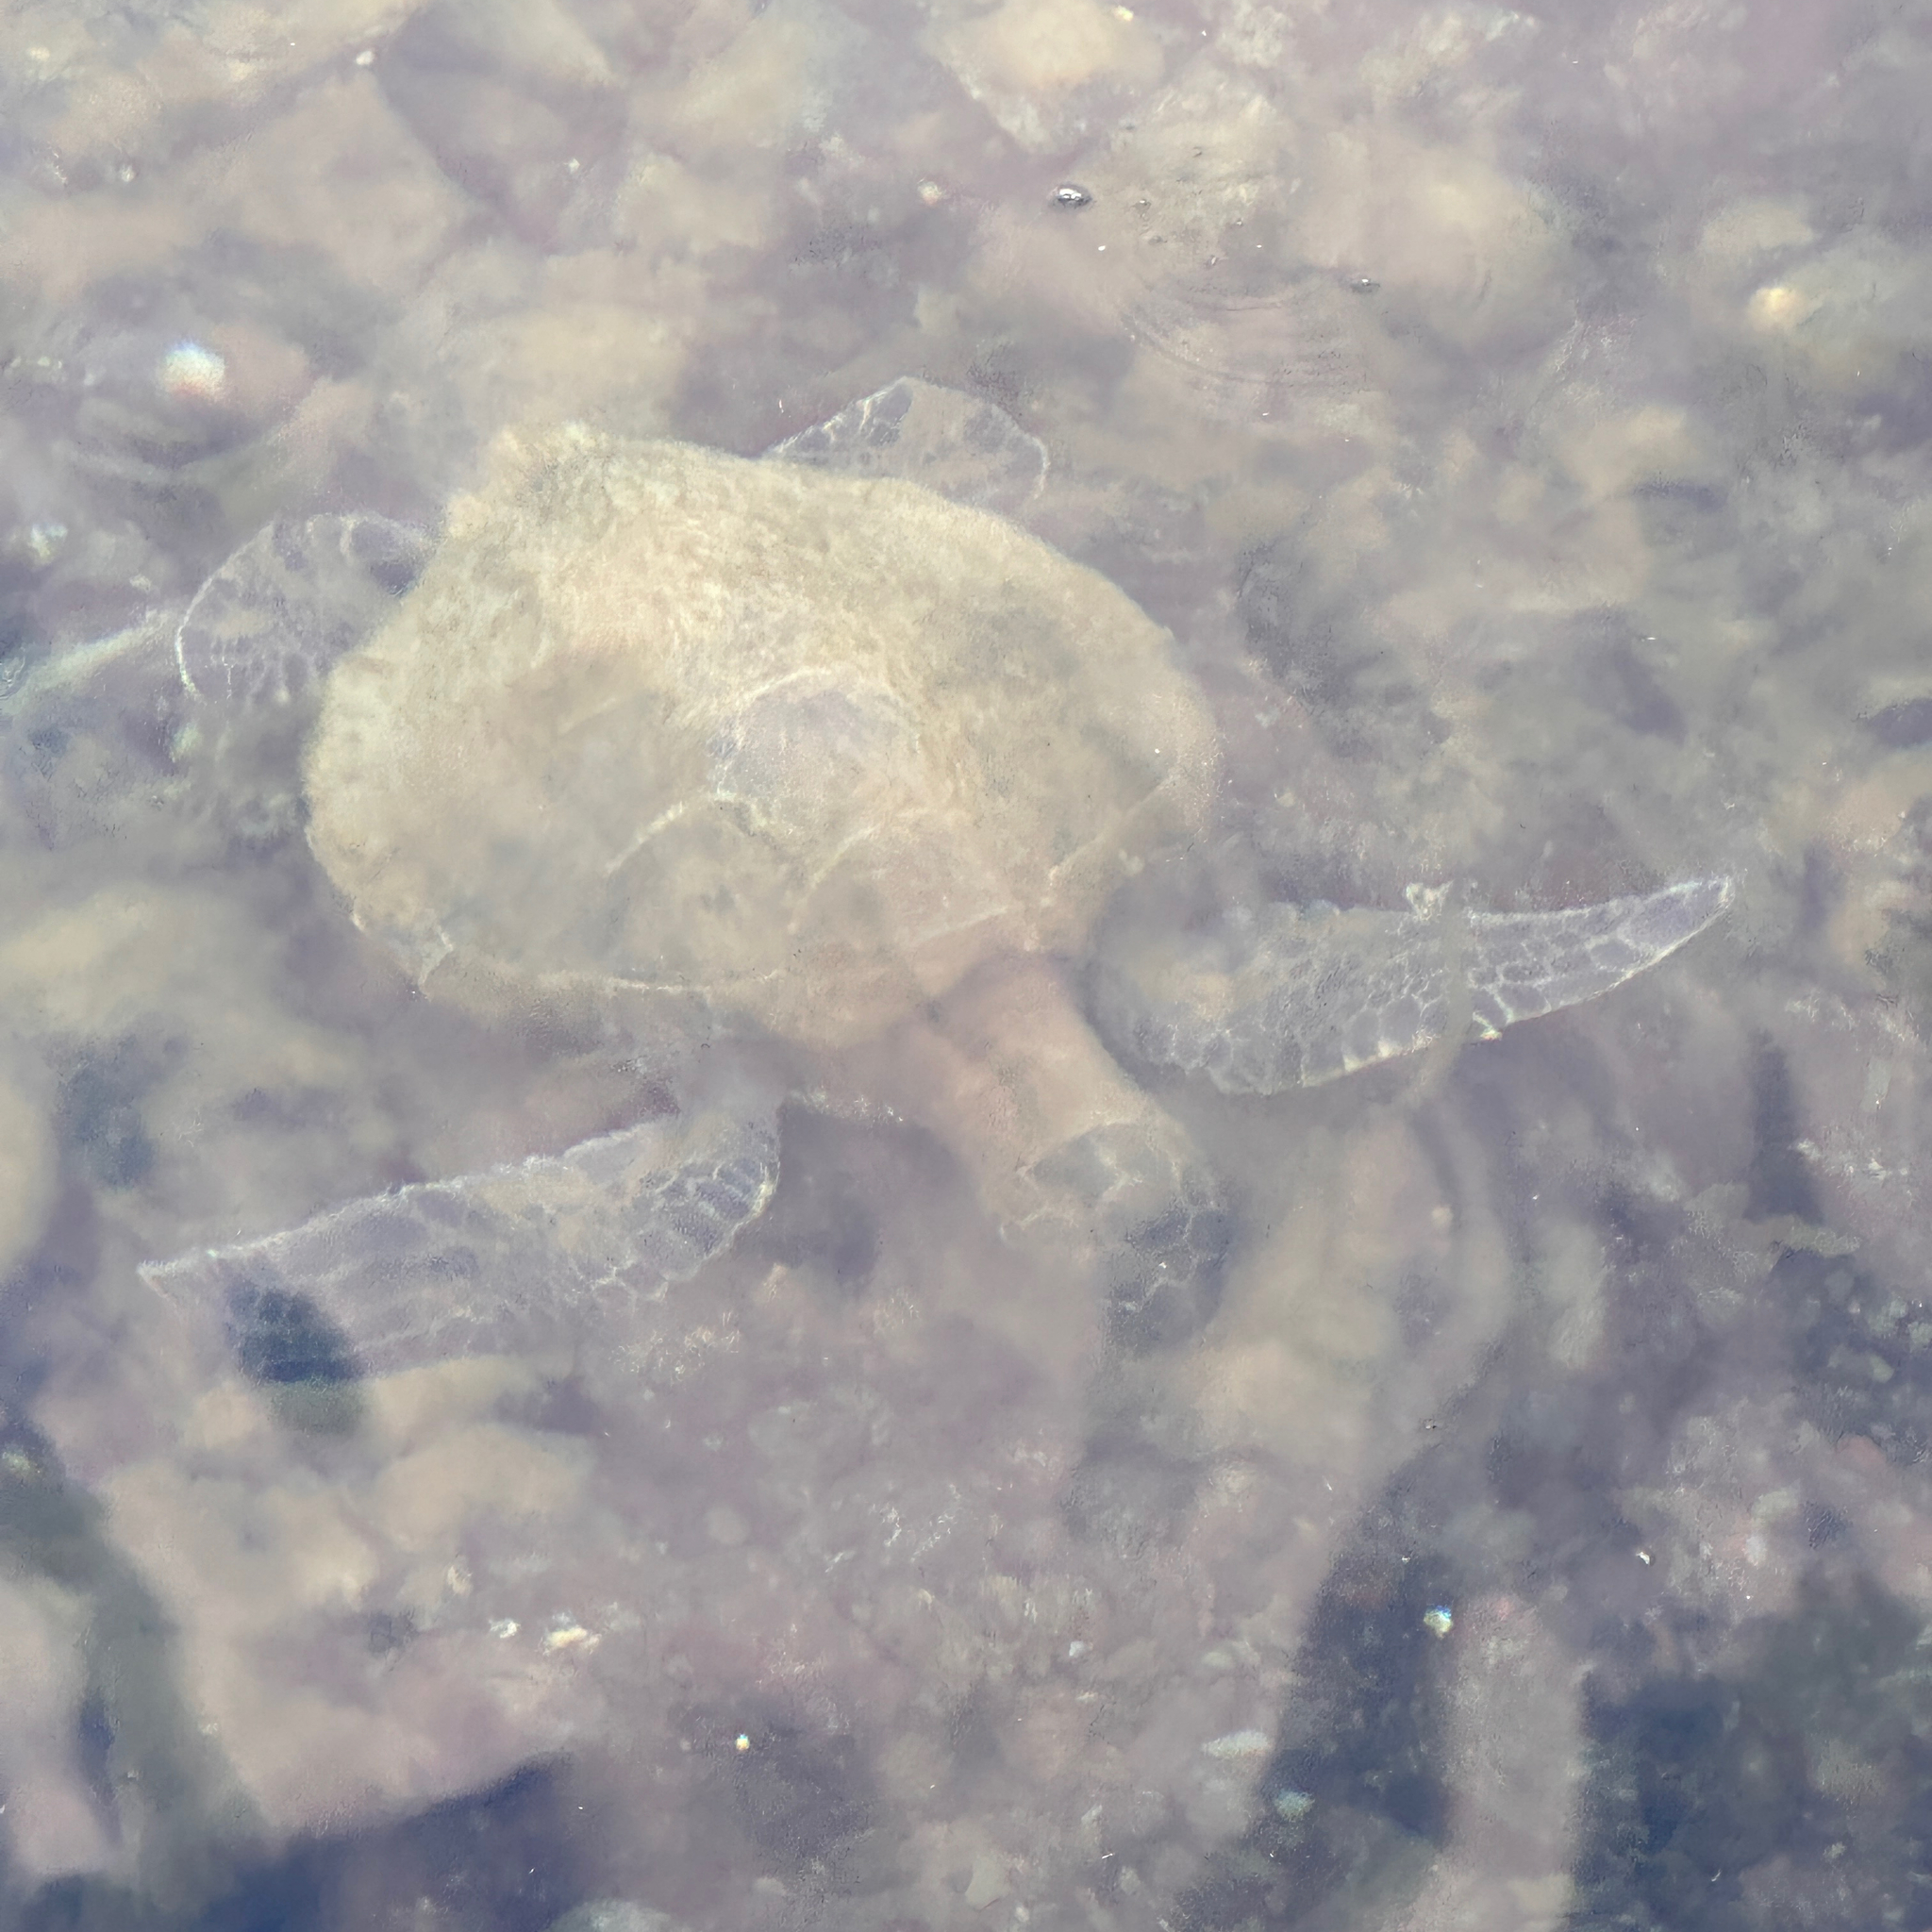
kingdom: Animalia
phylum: Chordata
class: Testudines
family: Cheloniidae
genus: Chelonia
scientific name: Chelonia mydas
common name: Green turtle
